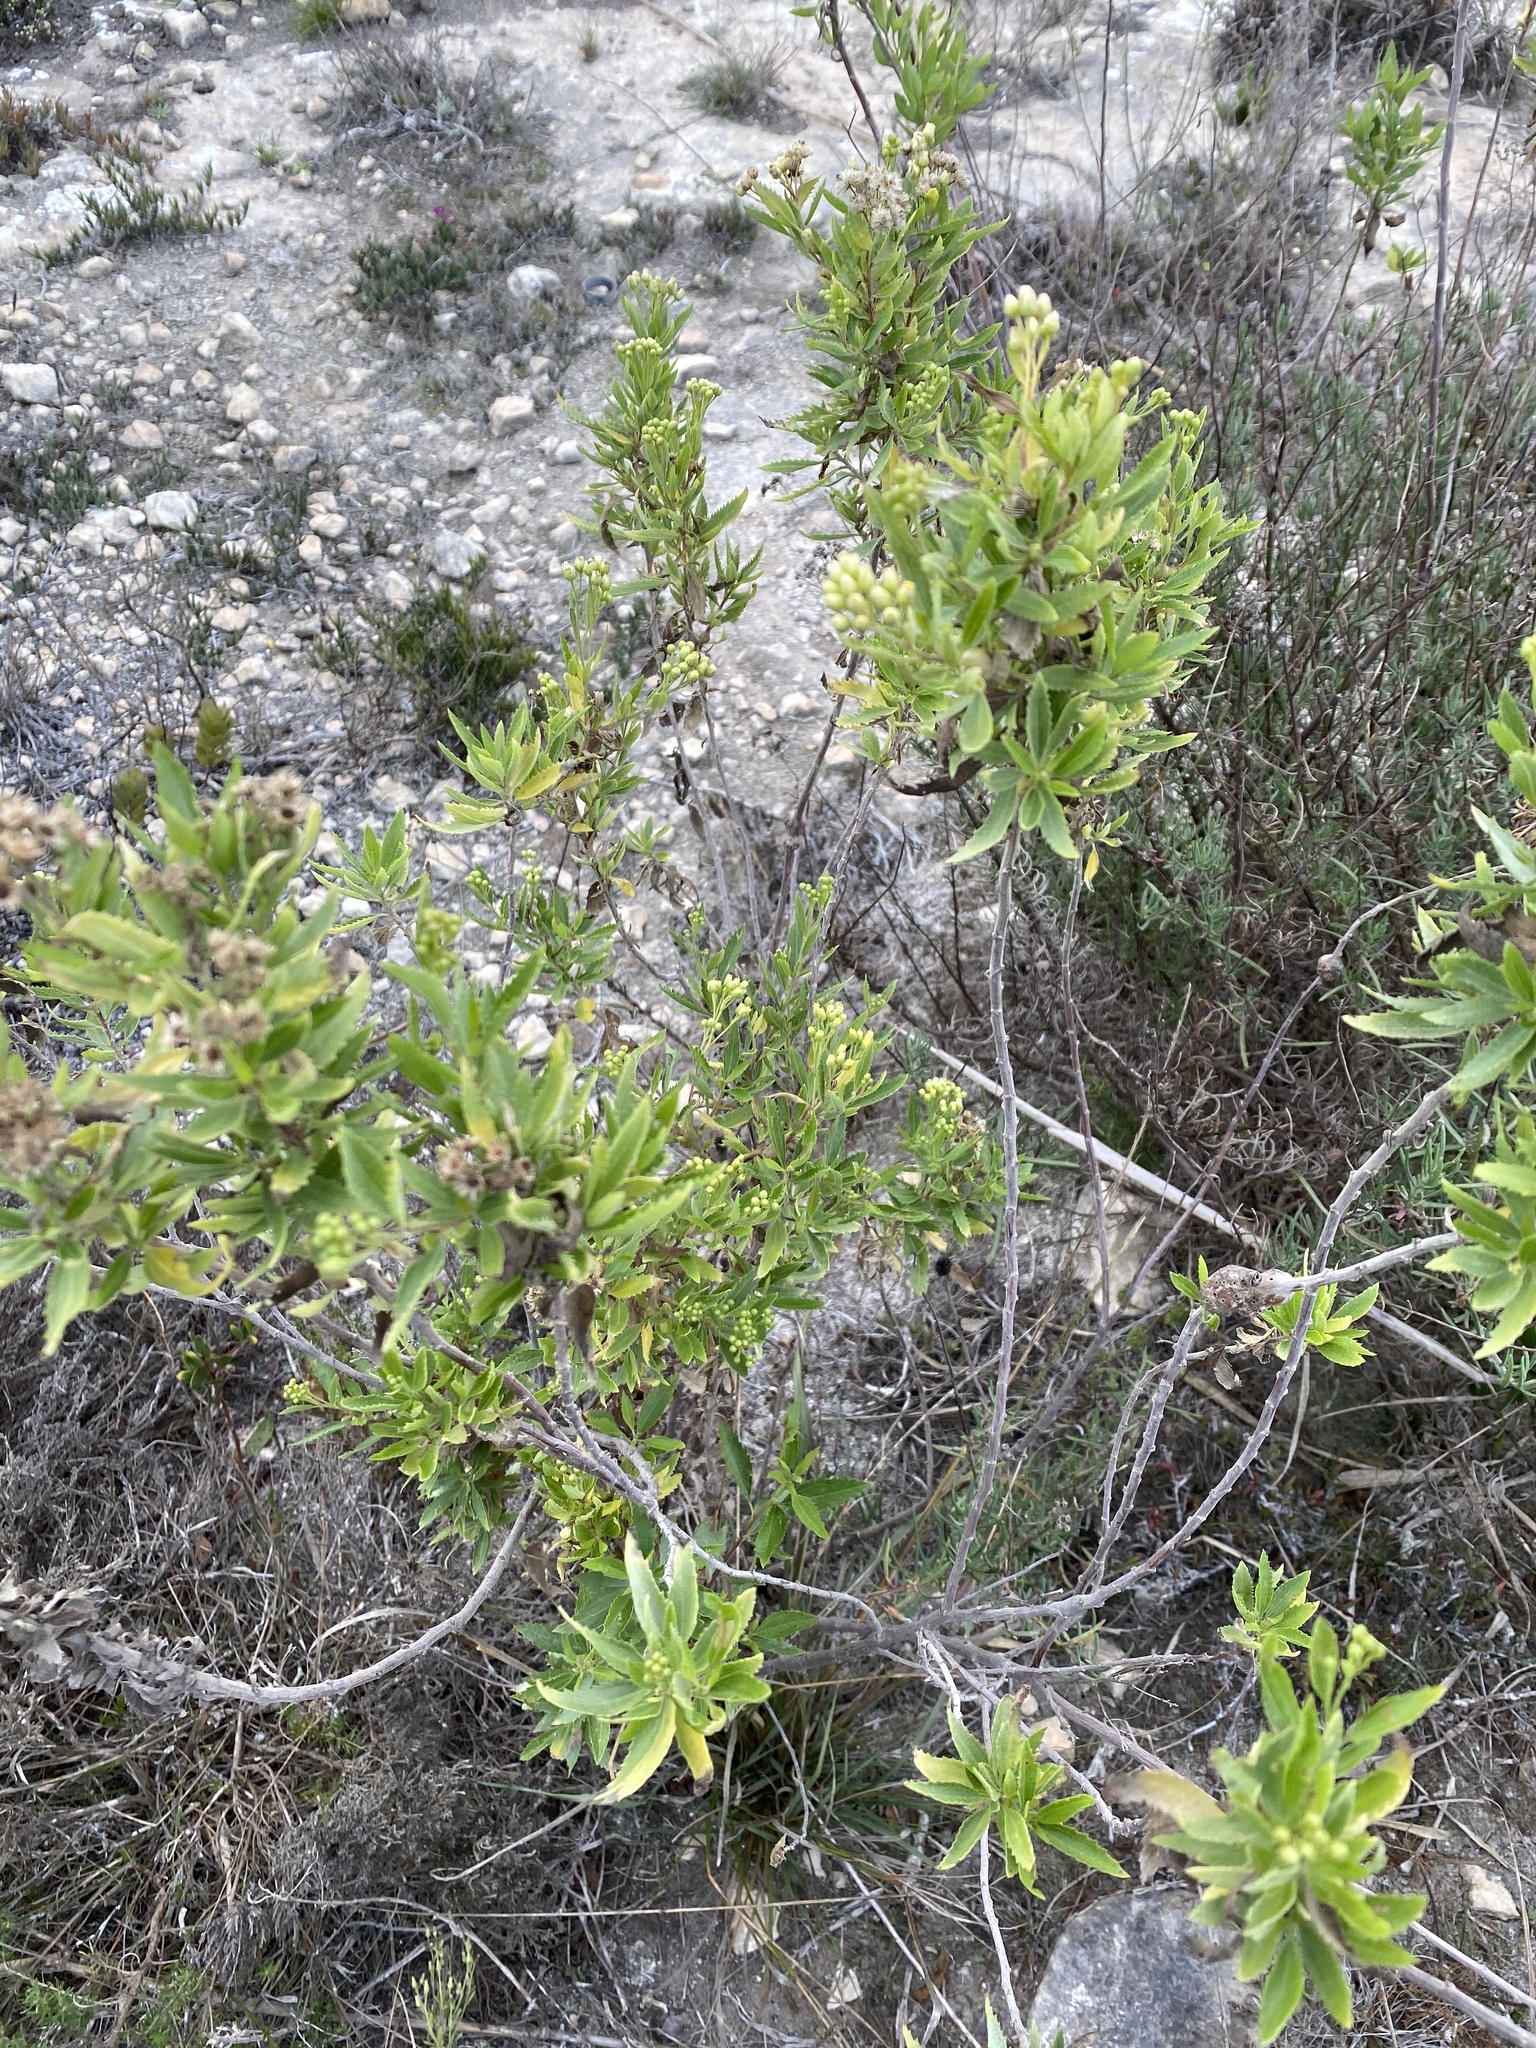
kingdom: Plantae
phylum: Tracheophyta
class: Magnoliopsida
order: Asterales
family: Asteraceae
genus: Nidorella
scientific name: Nidorella ivifolia
